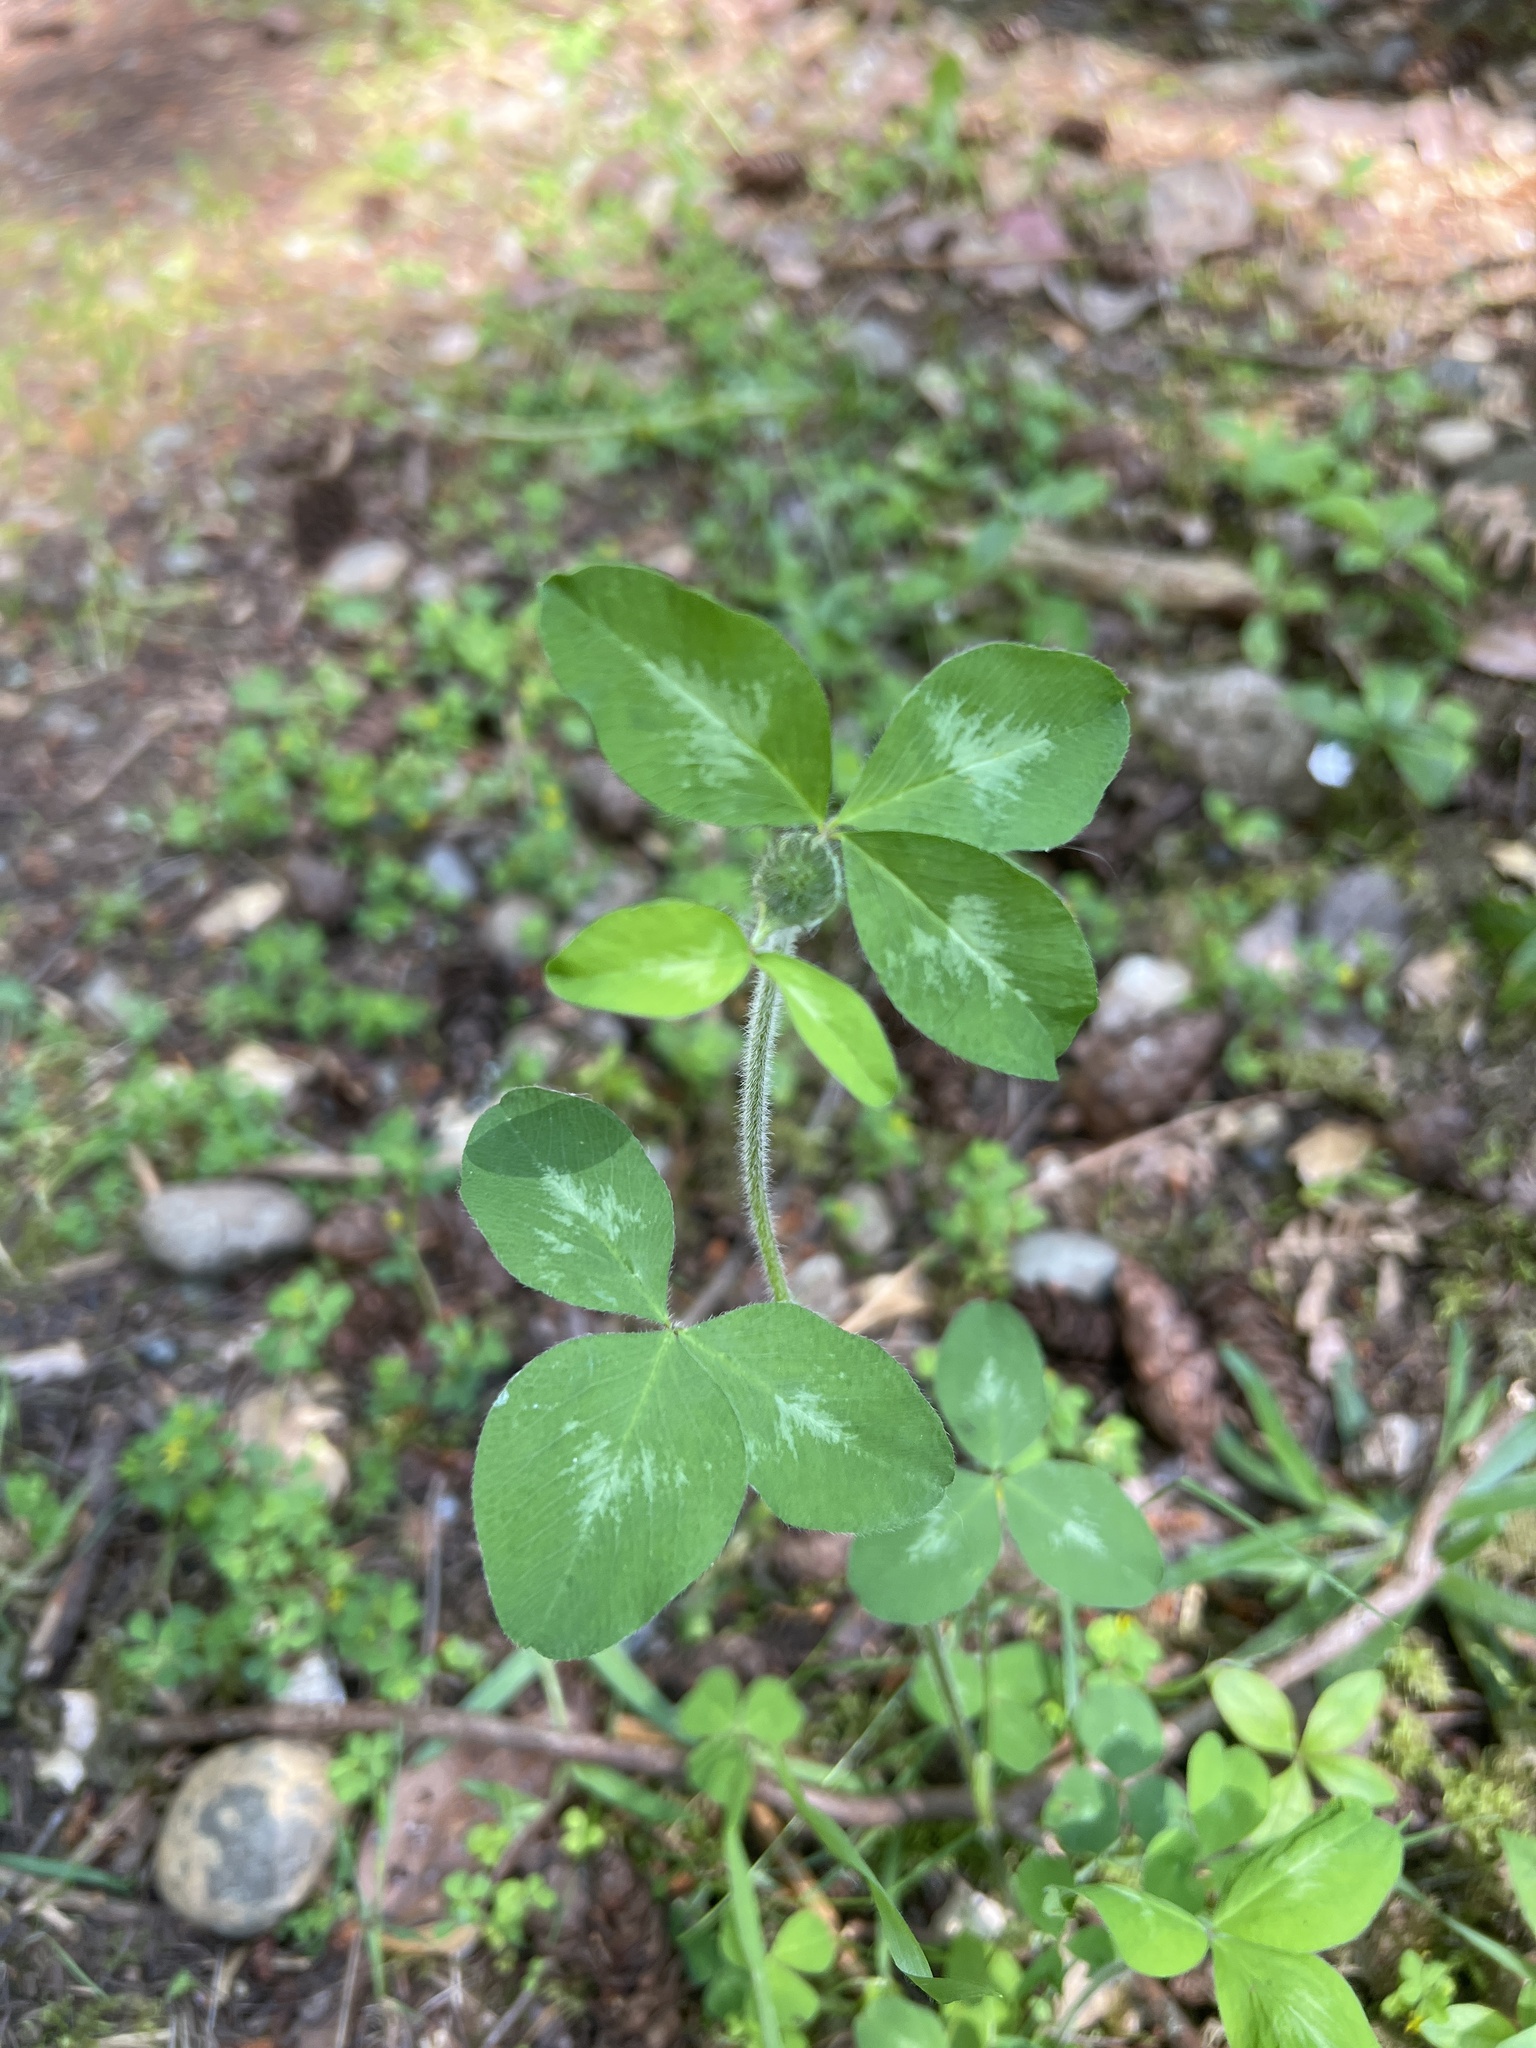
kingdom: Plantae
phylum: Tracheophyta
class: Magnoliopsida
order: Fabales
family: Fabaceae
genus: Trifolium
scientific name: Trifolium pratense
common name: Red clover
